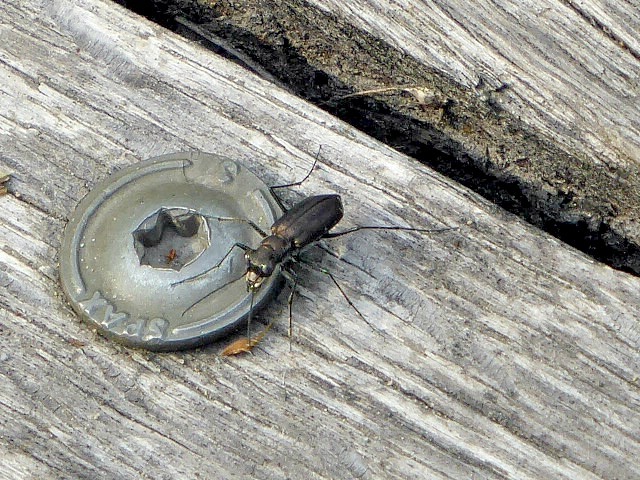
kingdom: Animalia
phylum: Arthropoda
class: Insecta
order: Coleoptera
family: Carabidae
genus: Cicindela
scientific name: Cicindela punctulata
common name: Punctured tiger beetle
